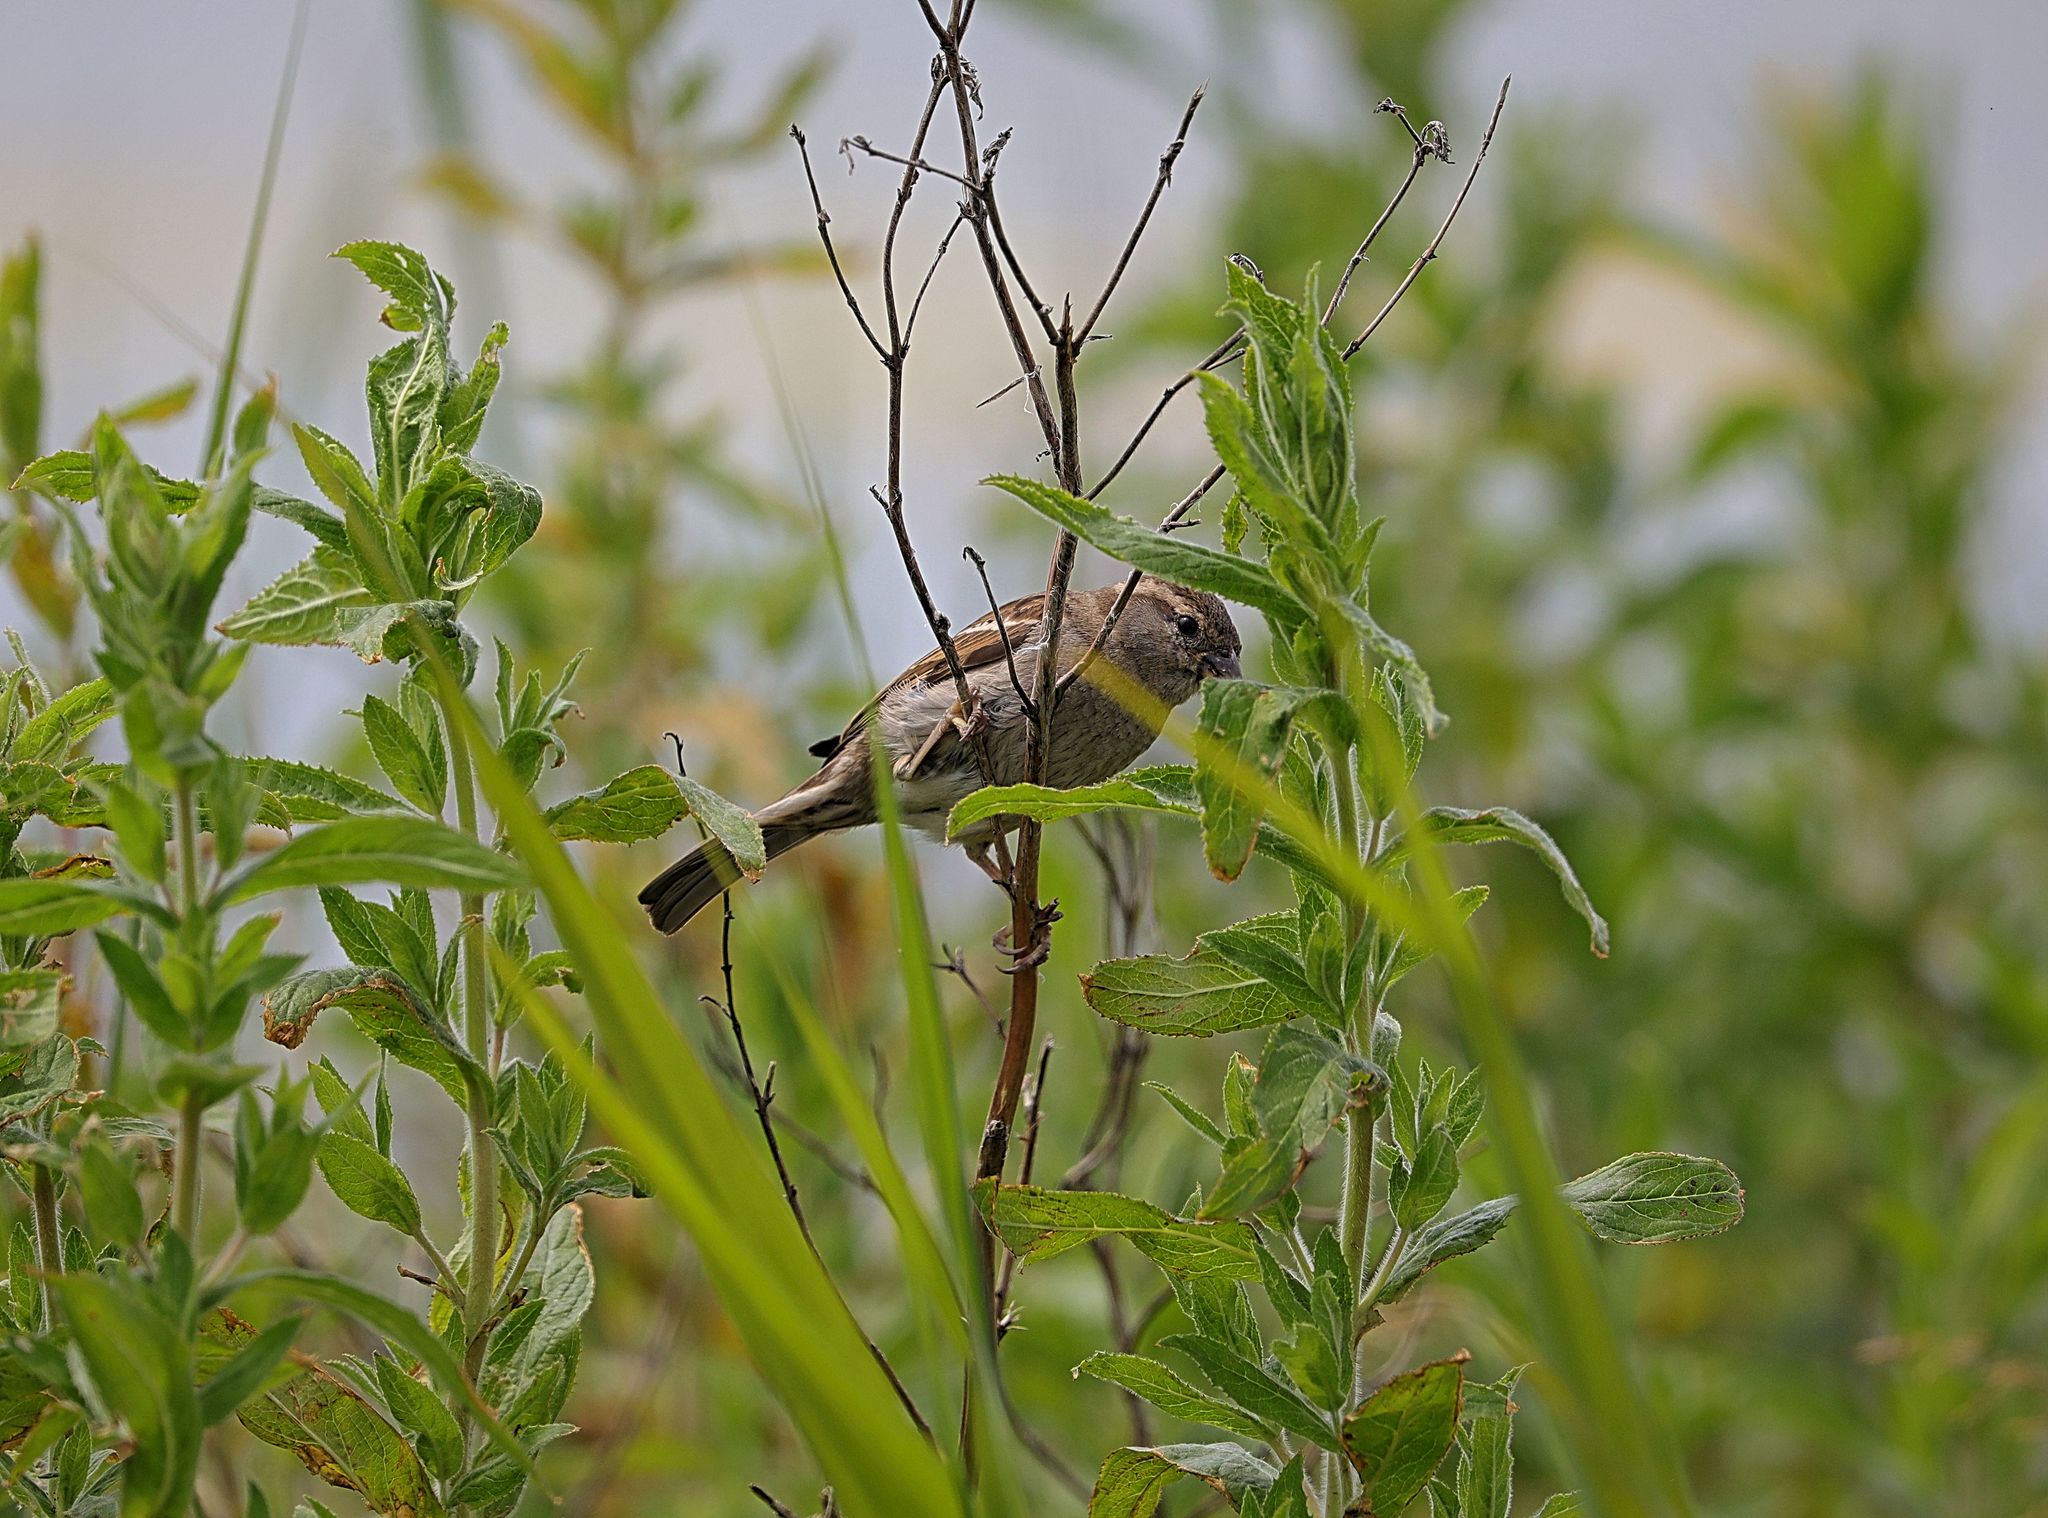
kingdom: Animalia
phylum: Chordata
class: Aves
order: Passeriformes
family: Passeridae
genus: Passer
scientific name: Passer domesticus
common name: House sparrow
